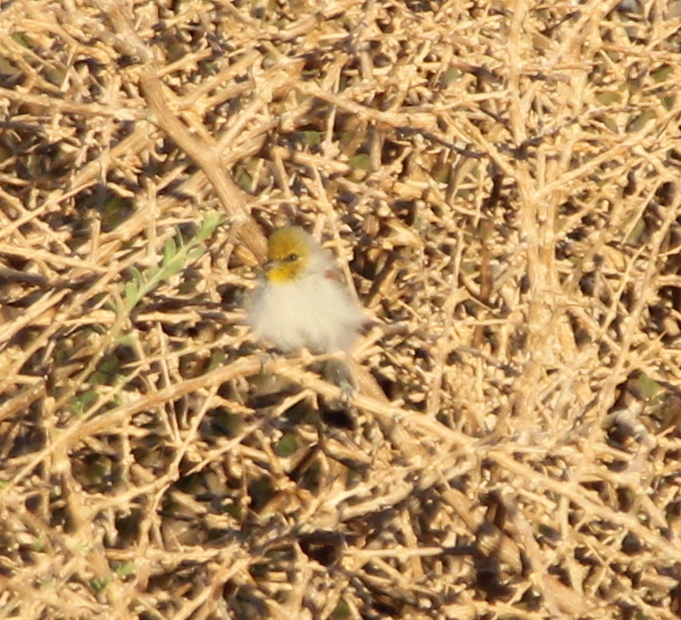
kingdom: Animalia
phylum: Chordata
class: Aves
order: Passeriformes
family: Remizidae
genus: Auriparus
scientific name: Auriparus flaviceps
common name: Verdin
